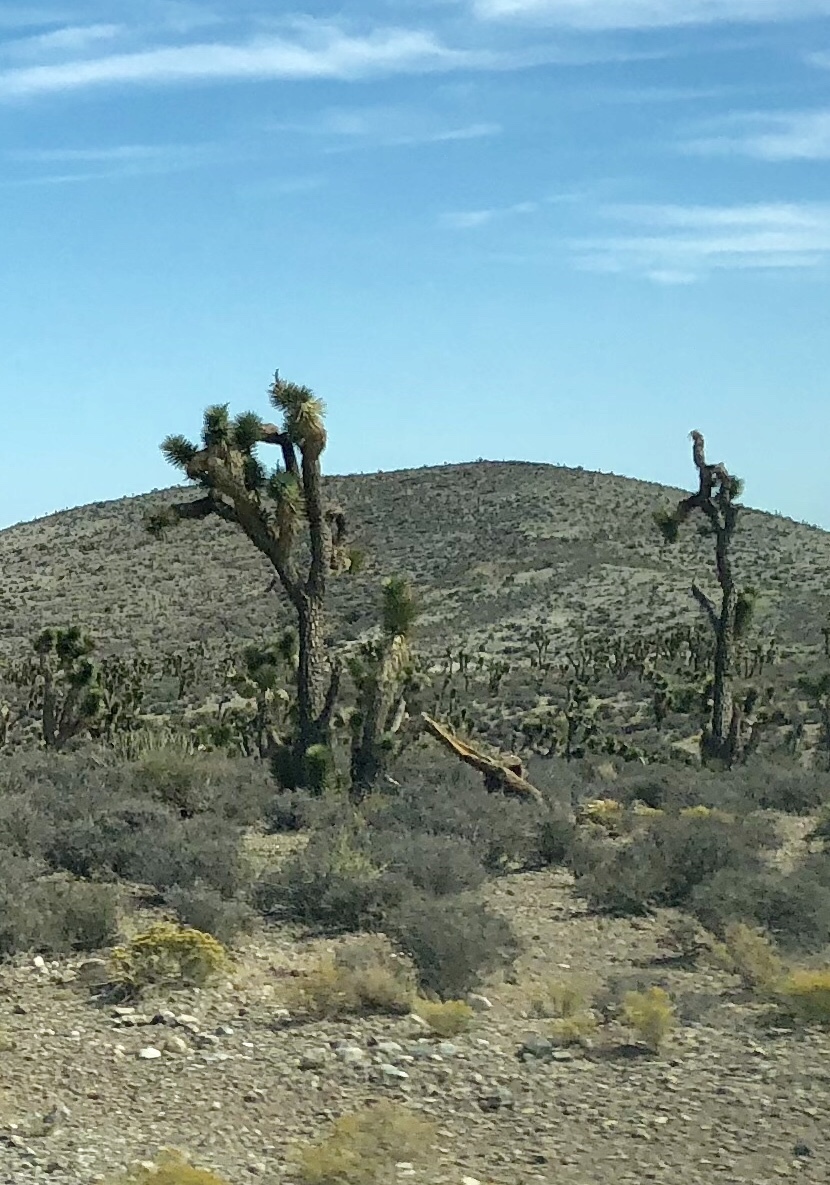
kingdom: Plantae
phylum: Tracheophyta
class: Liliopsida
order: Asparagales
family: Asparagaceae
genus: Yucca
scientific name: Yucca brevifolia
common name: Joshua tree
